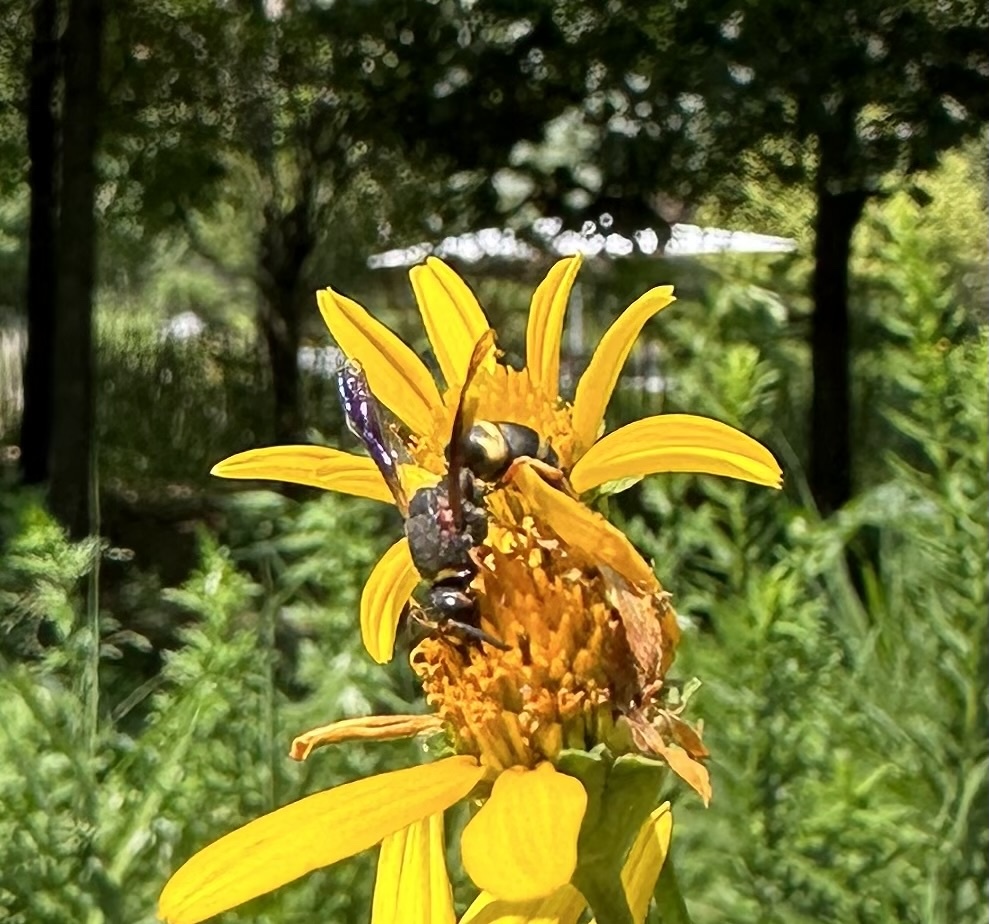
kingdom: Animalia
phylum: Arthropoda
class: Insecta
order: Hymenoptera
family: Eumenidae
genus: Euodynerus
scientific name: Euodynerus hidalgo
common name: Wasp
